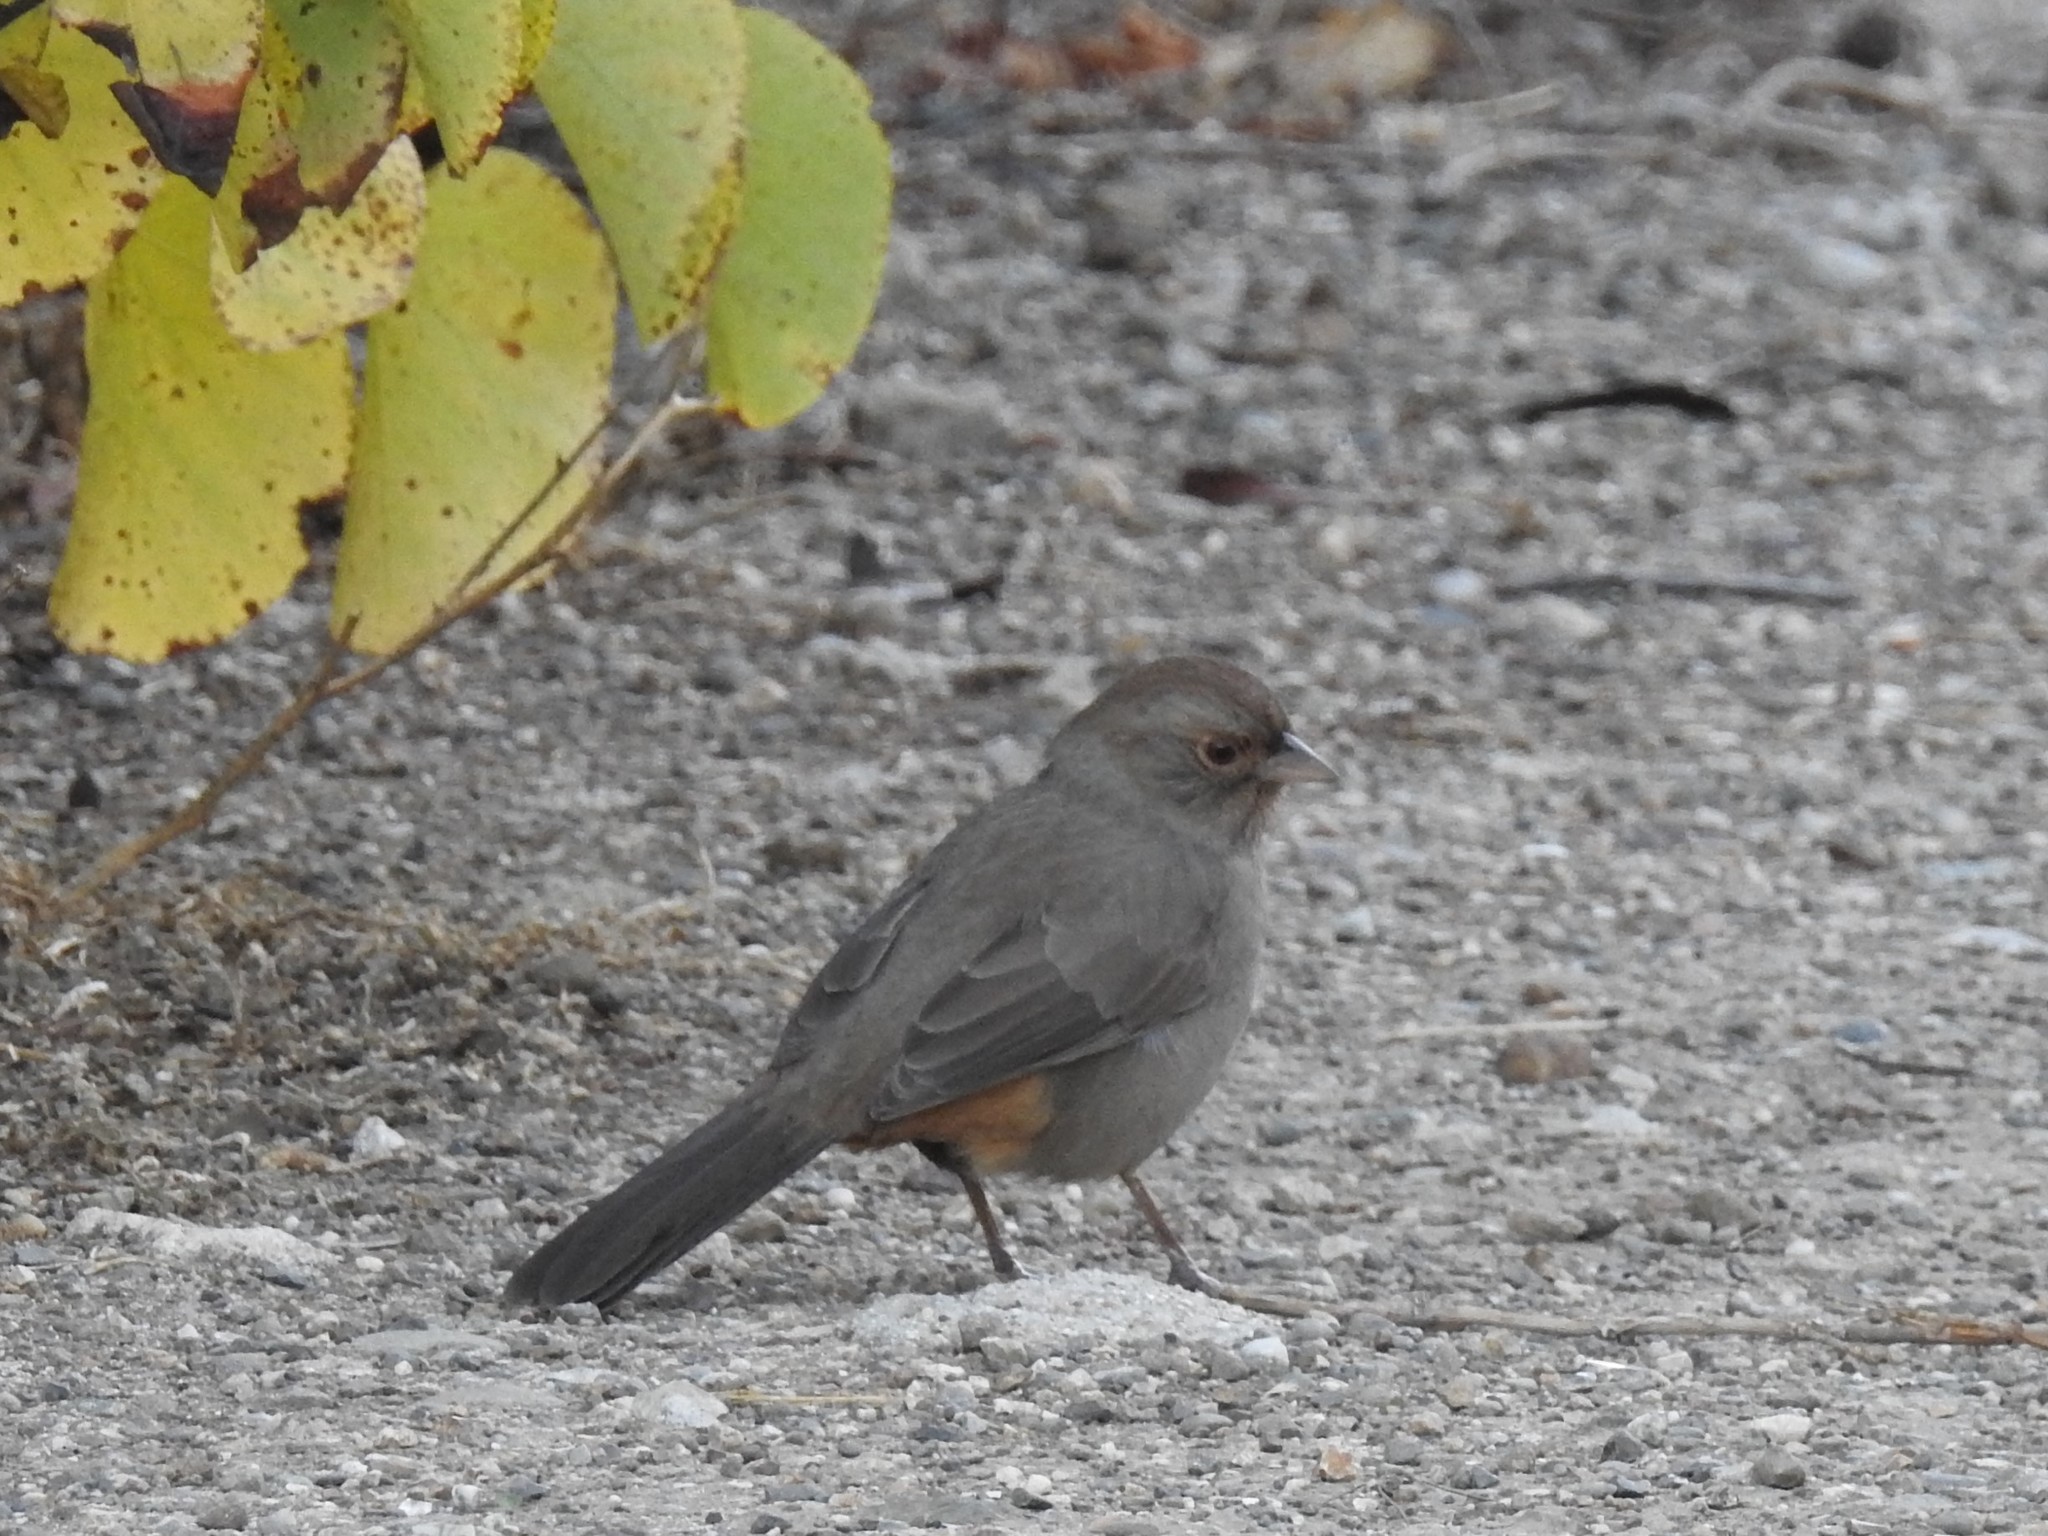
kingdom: Animalia
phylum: Chordata
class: Aves
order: Passeriformes
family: Passerellidae
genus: Melozone
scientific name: Melozone crissalis
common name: California towhee
